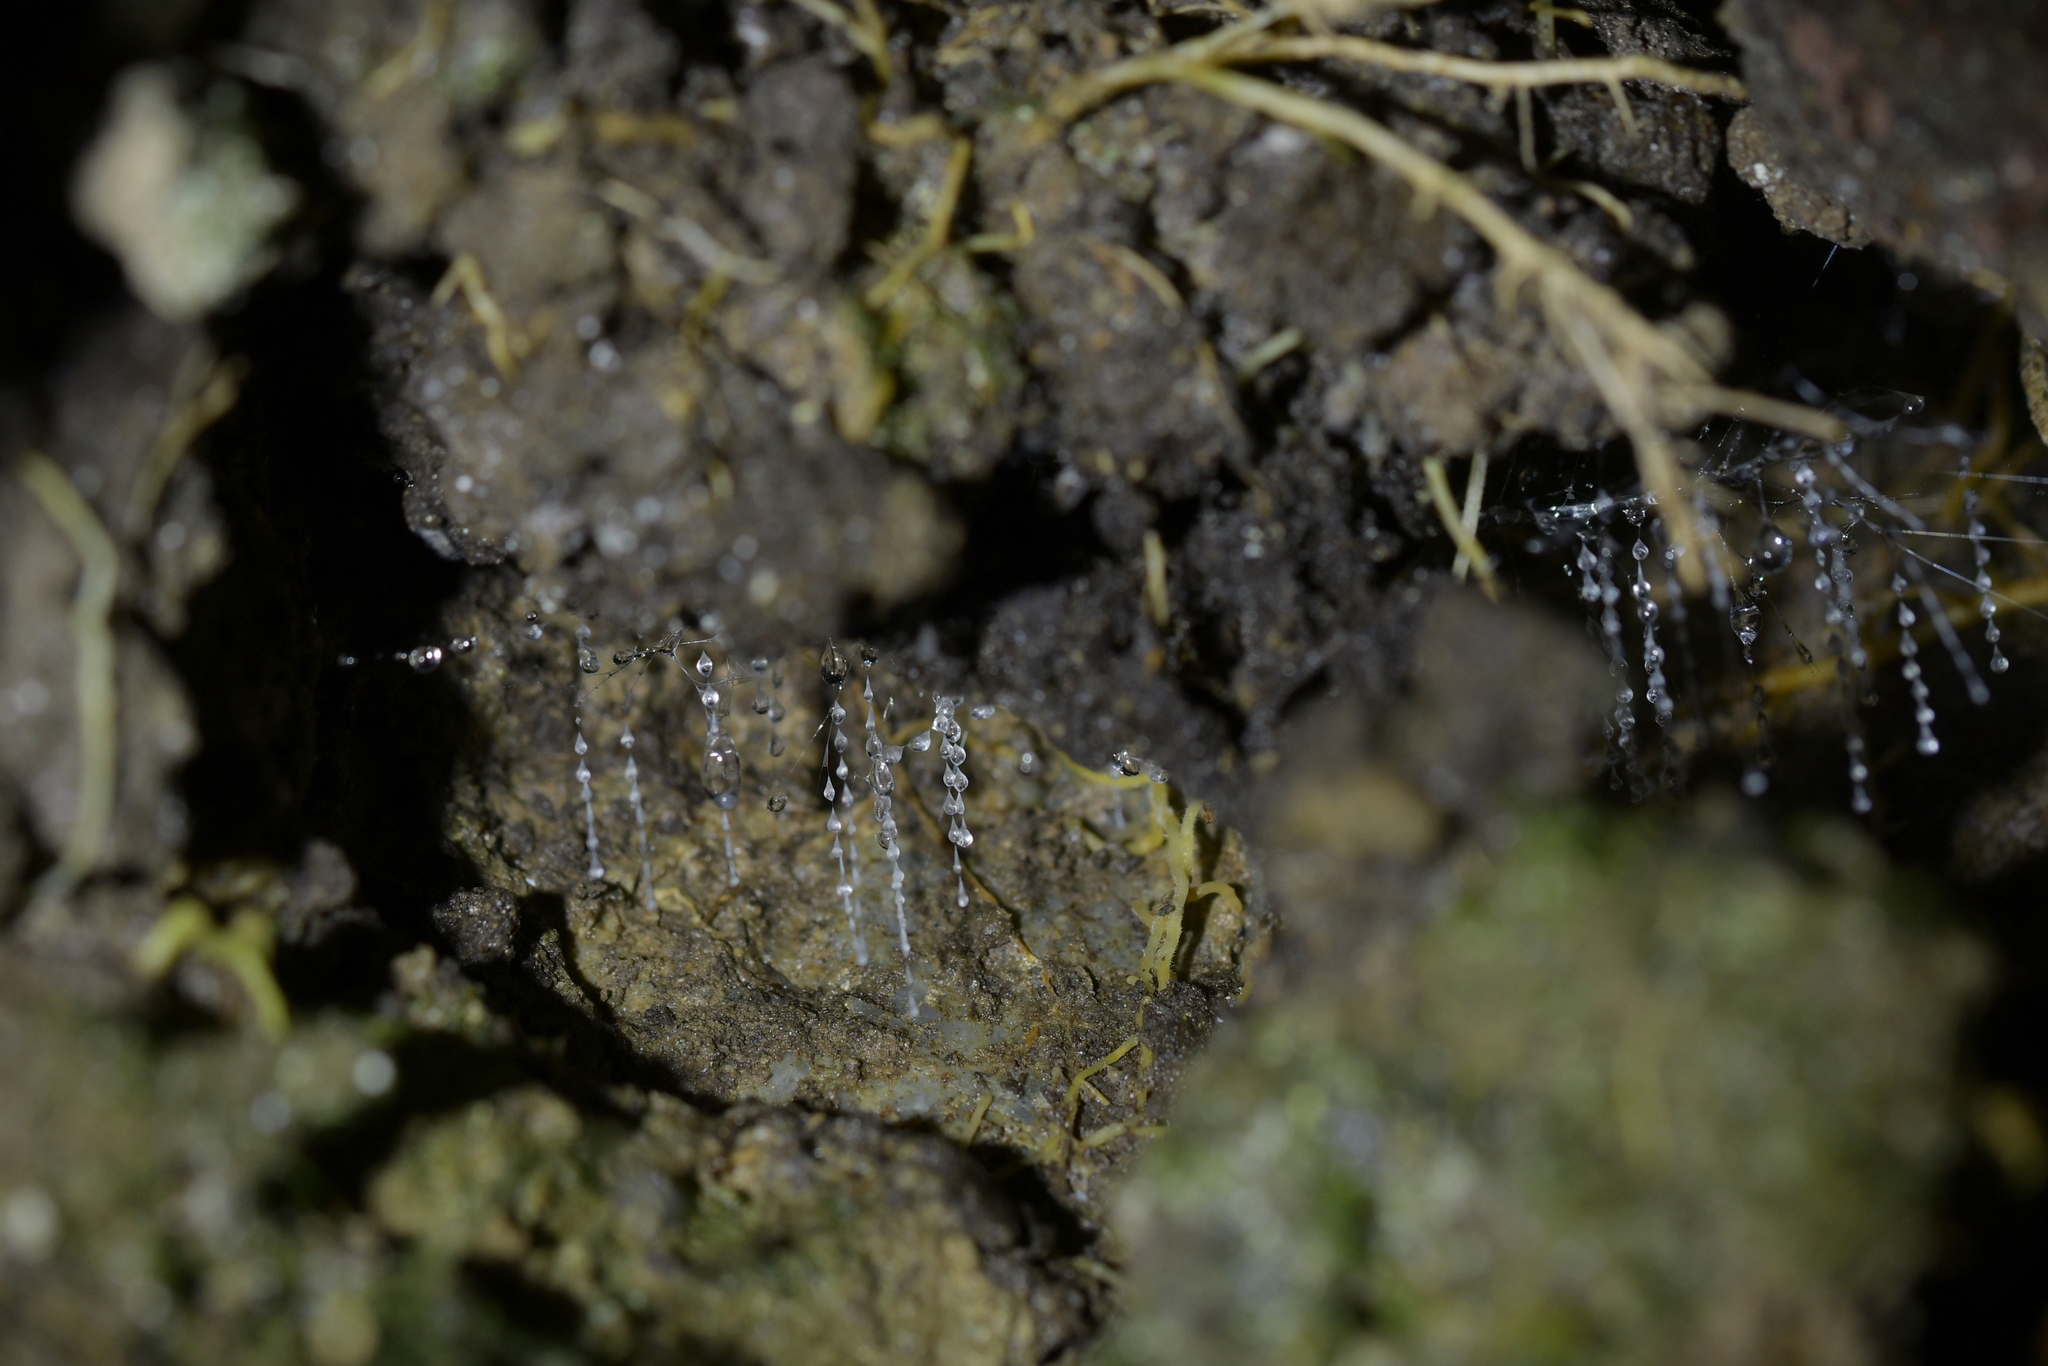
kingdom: Animalia
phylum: Arthropoda
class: Insecta
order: Diptera
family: Keroplatidae
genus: Arachnocampa
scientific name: Arachnocampa luminosa
